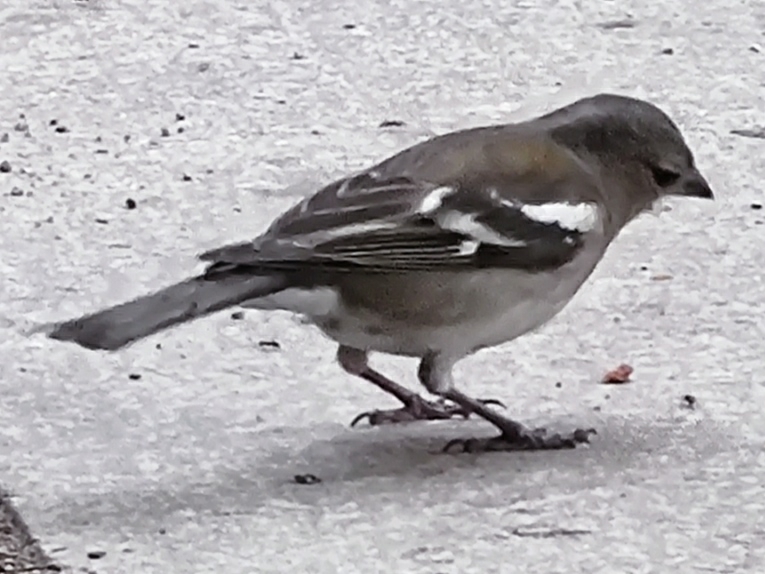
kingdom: Animalia
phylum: Chordata
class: Aves
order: Passeriformes
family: Fringillidae
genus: Fringilla
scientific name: Fringilla coelebs
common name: Common chaffinch
